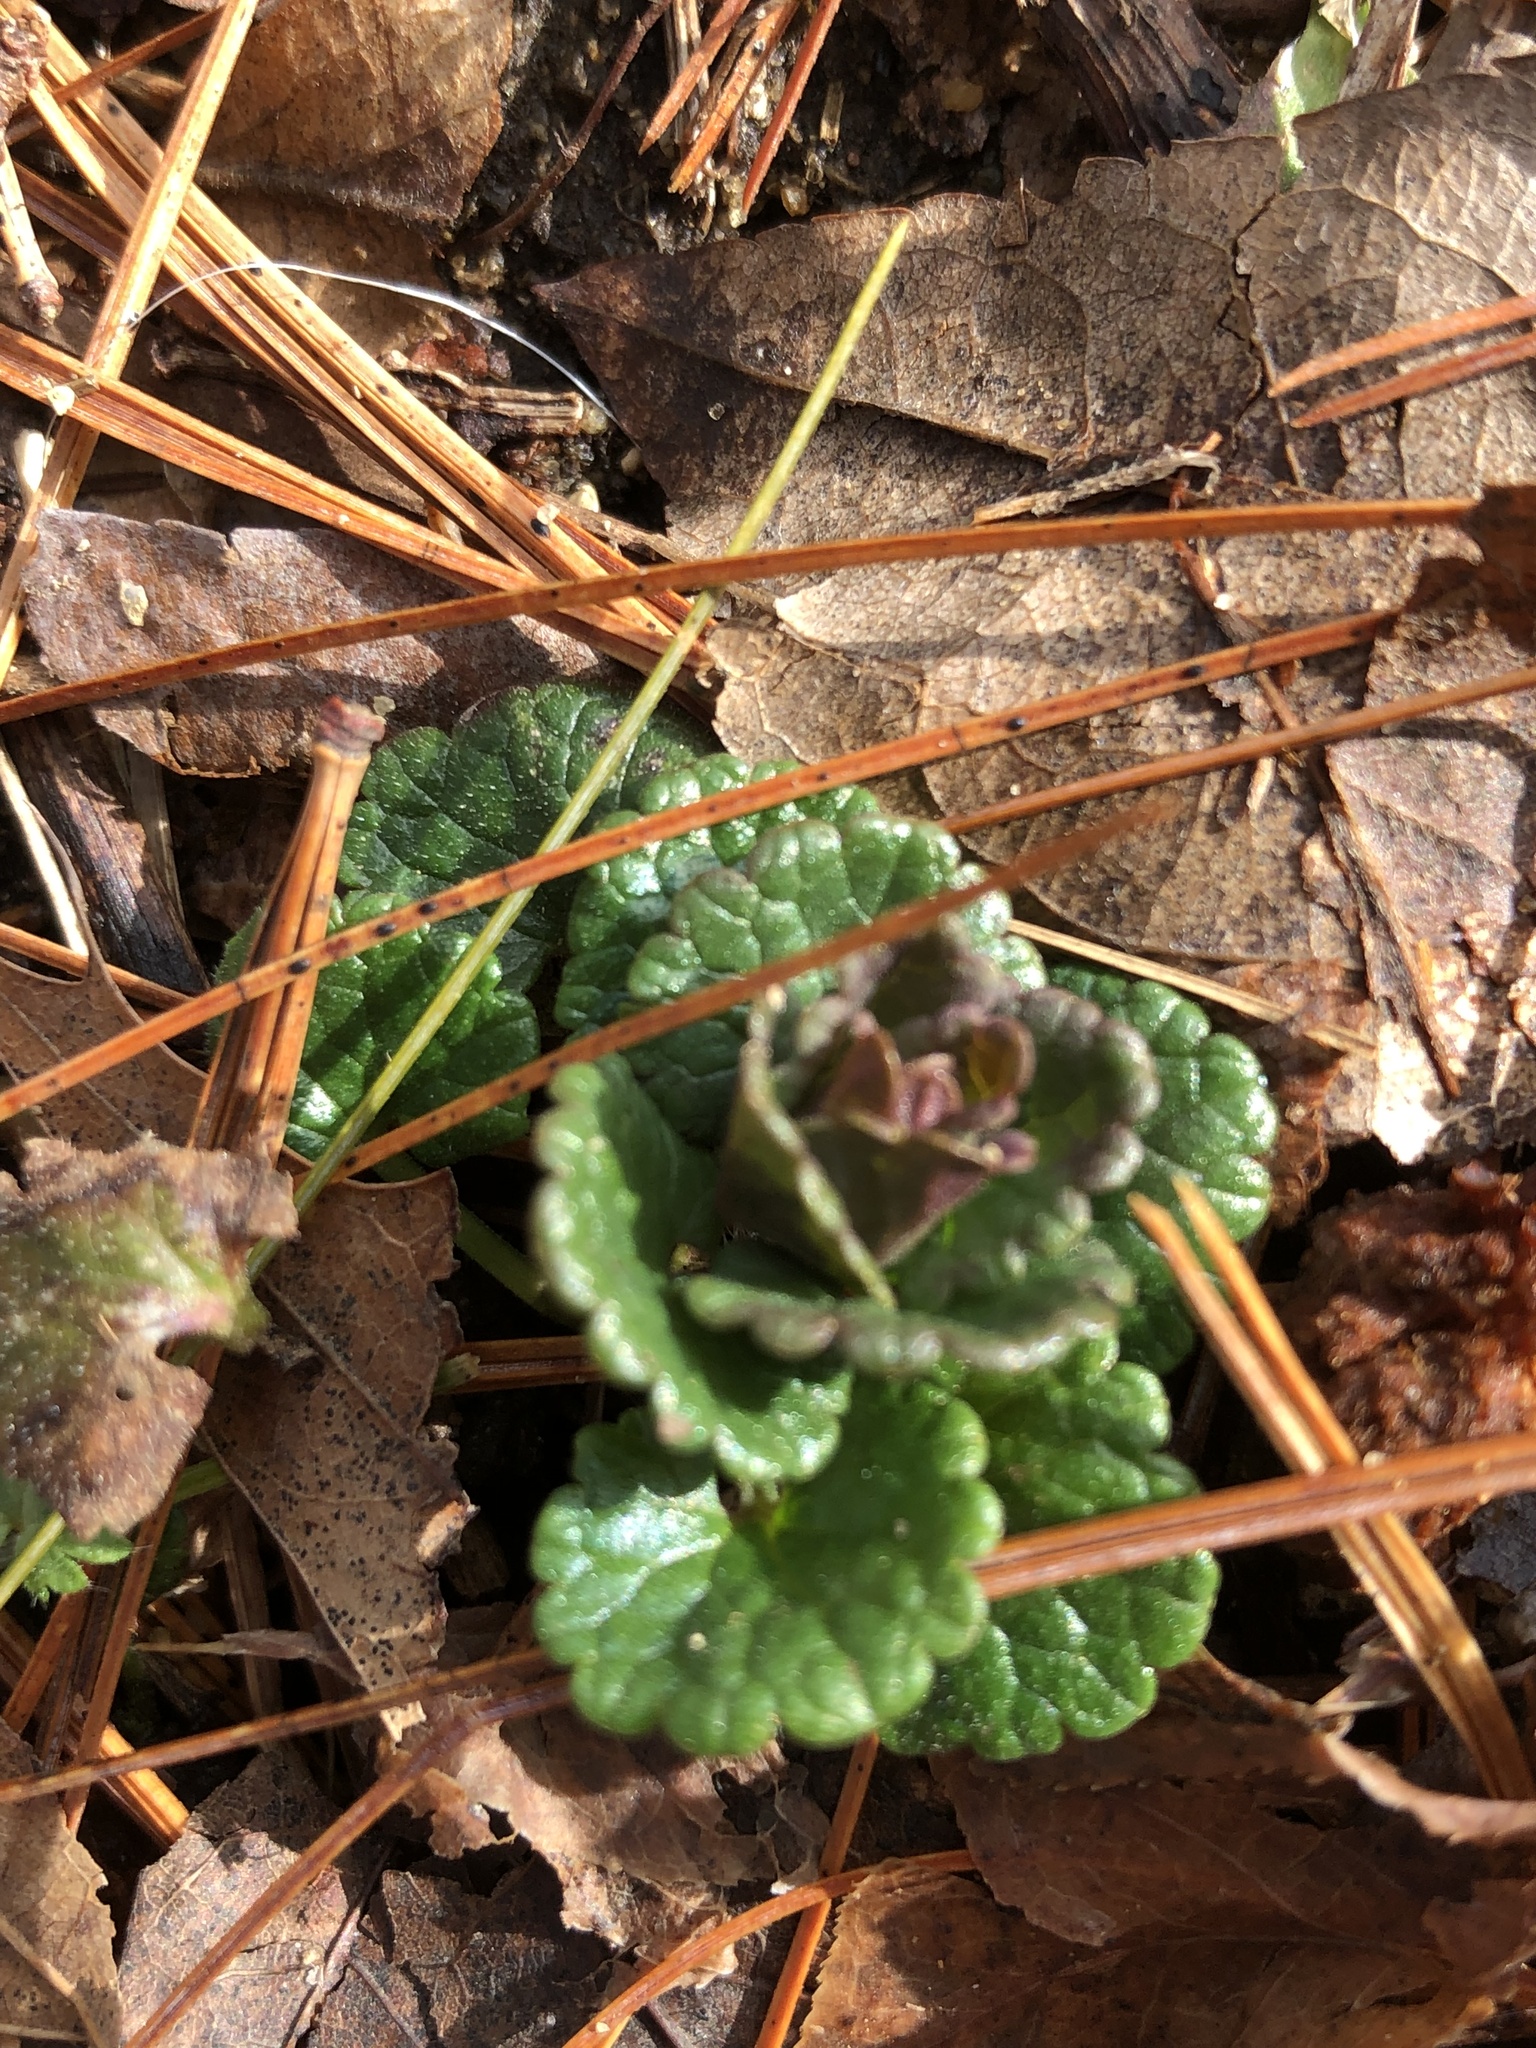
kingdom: Plantae
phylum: Tracheophyta
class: Magnoliopsida
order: Lamiales
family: Lamiaceae
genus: Glechoma
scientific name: Glechoma hederacea
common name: Ground ivy
